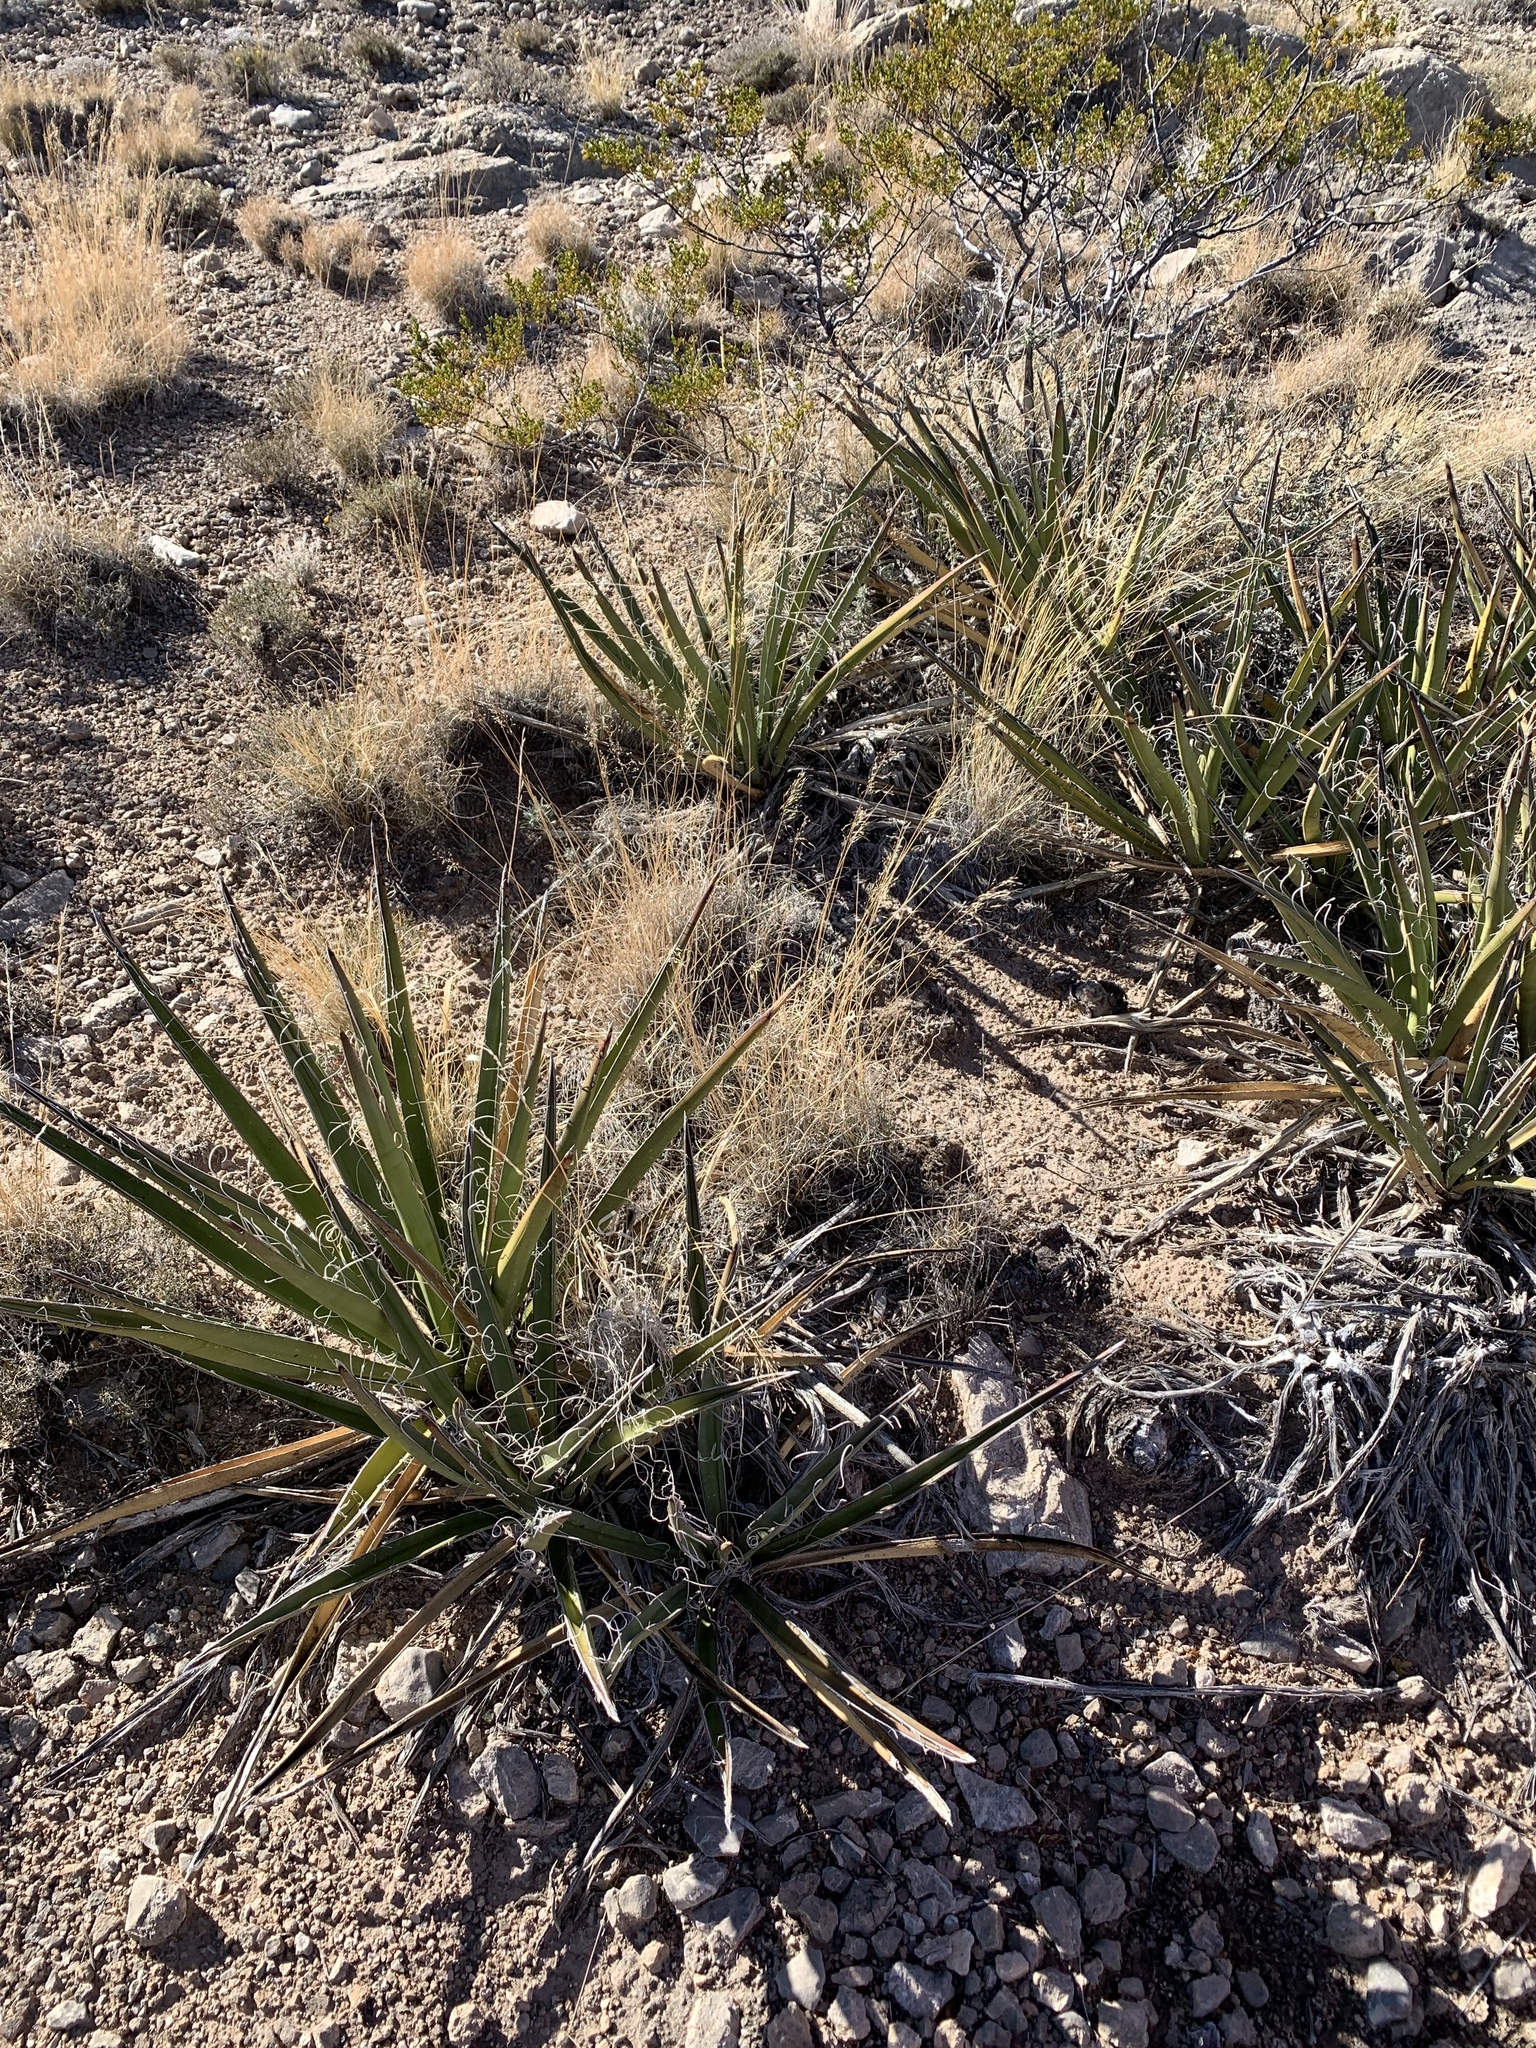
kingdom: Plantae
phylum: Tracheophyta
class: Liliopsida
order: Asparagales
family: Asparagaceae
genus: Yucca
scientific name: Yucca baccata
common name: Banana yucca
